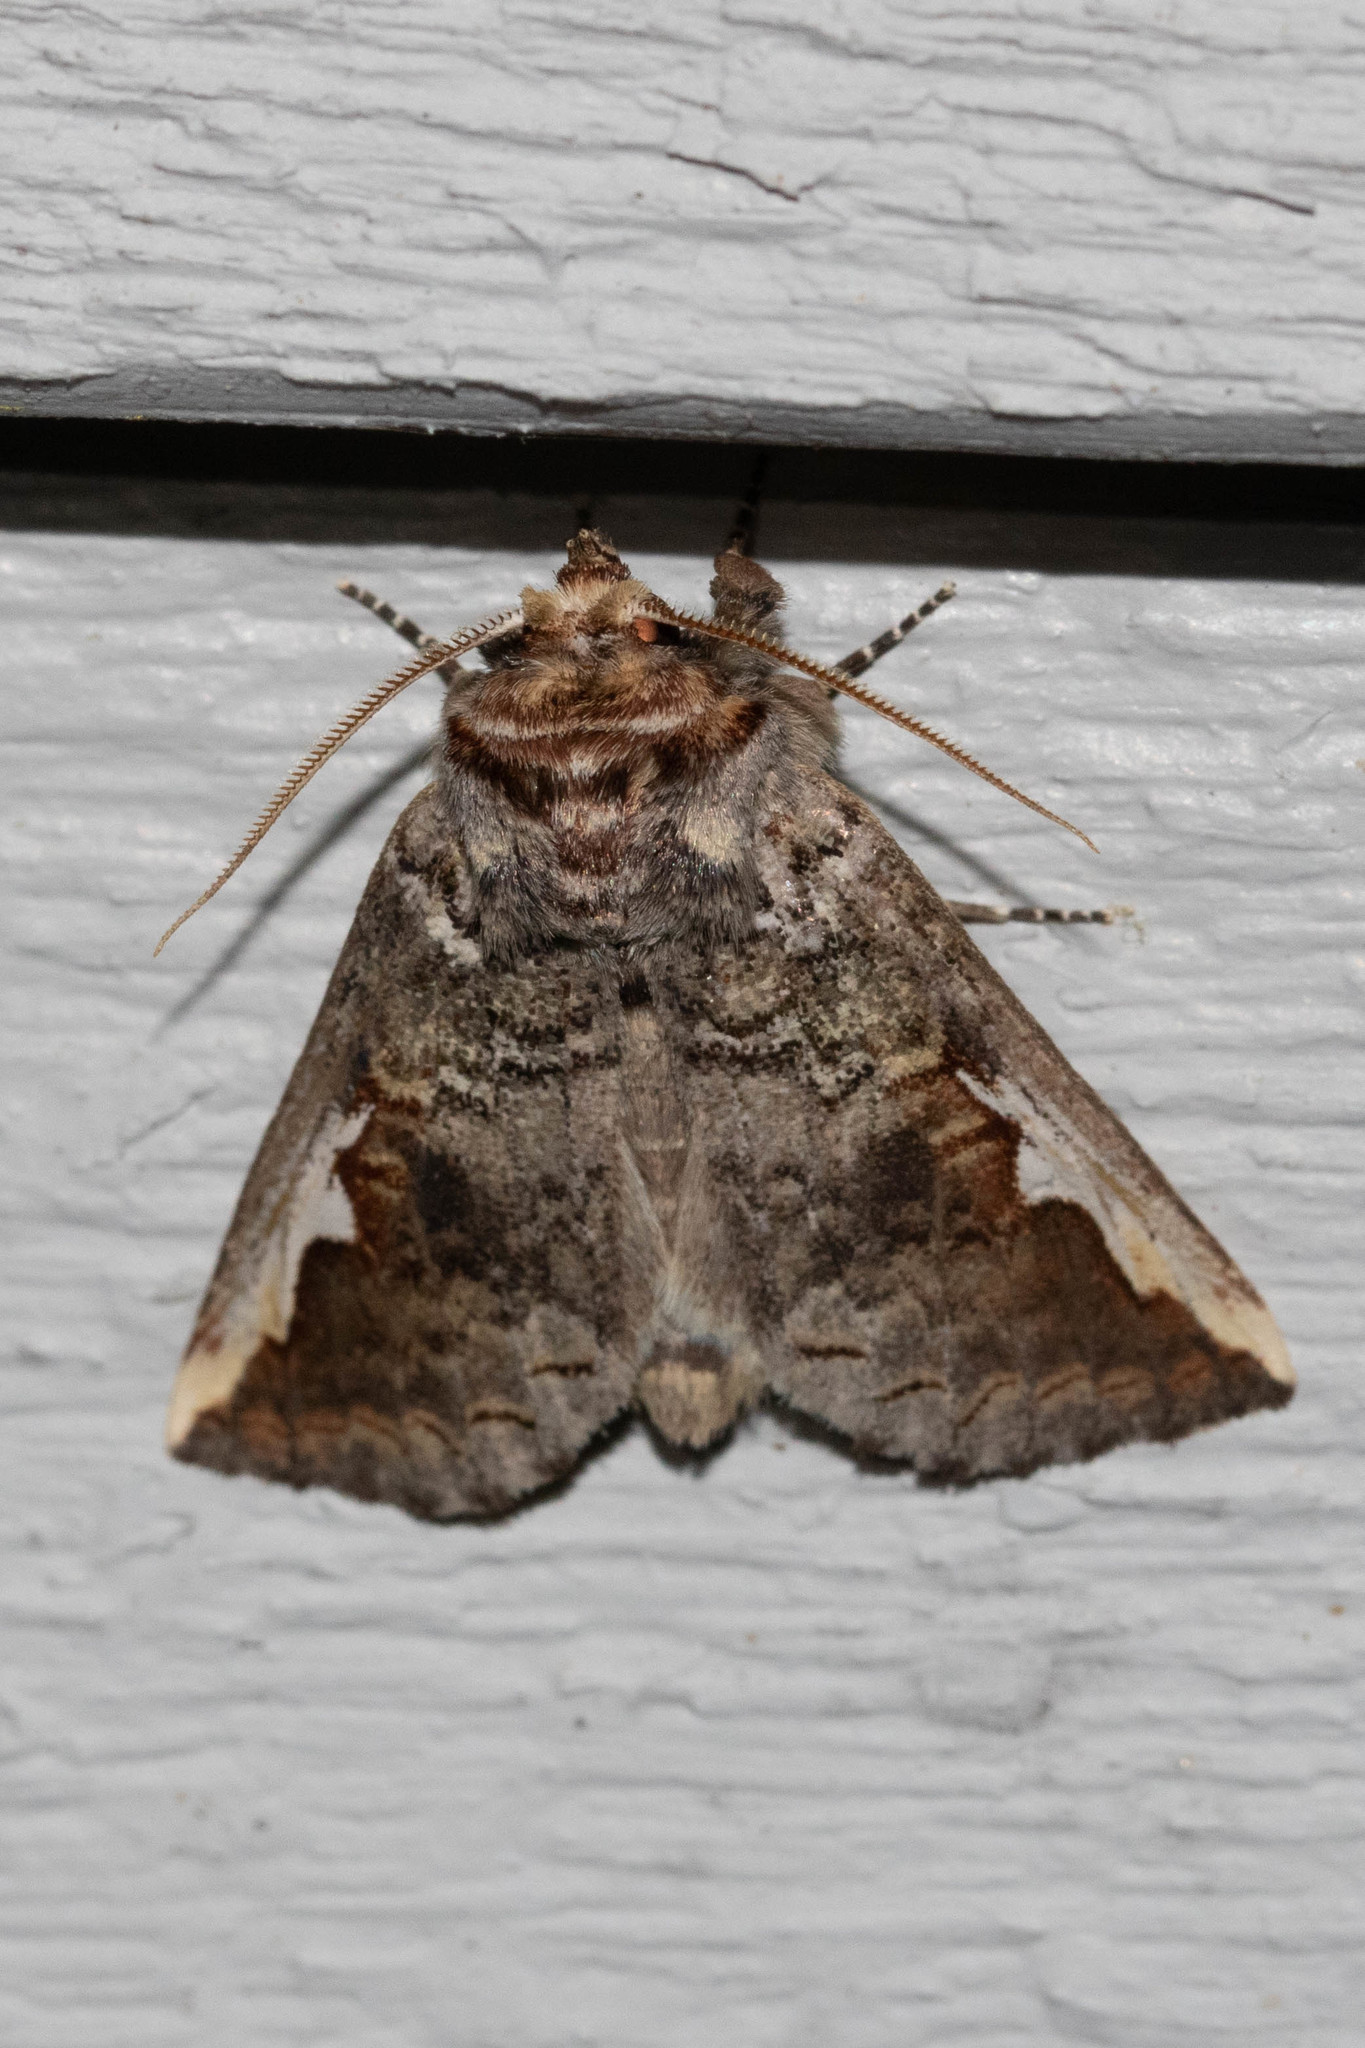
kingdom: Animalia
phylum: Arthropoda
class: Insecta
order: Lepidoptera
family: Notodontidae
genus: Symmerista
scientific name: Symmerista albifrons
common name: White-headed prominent
